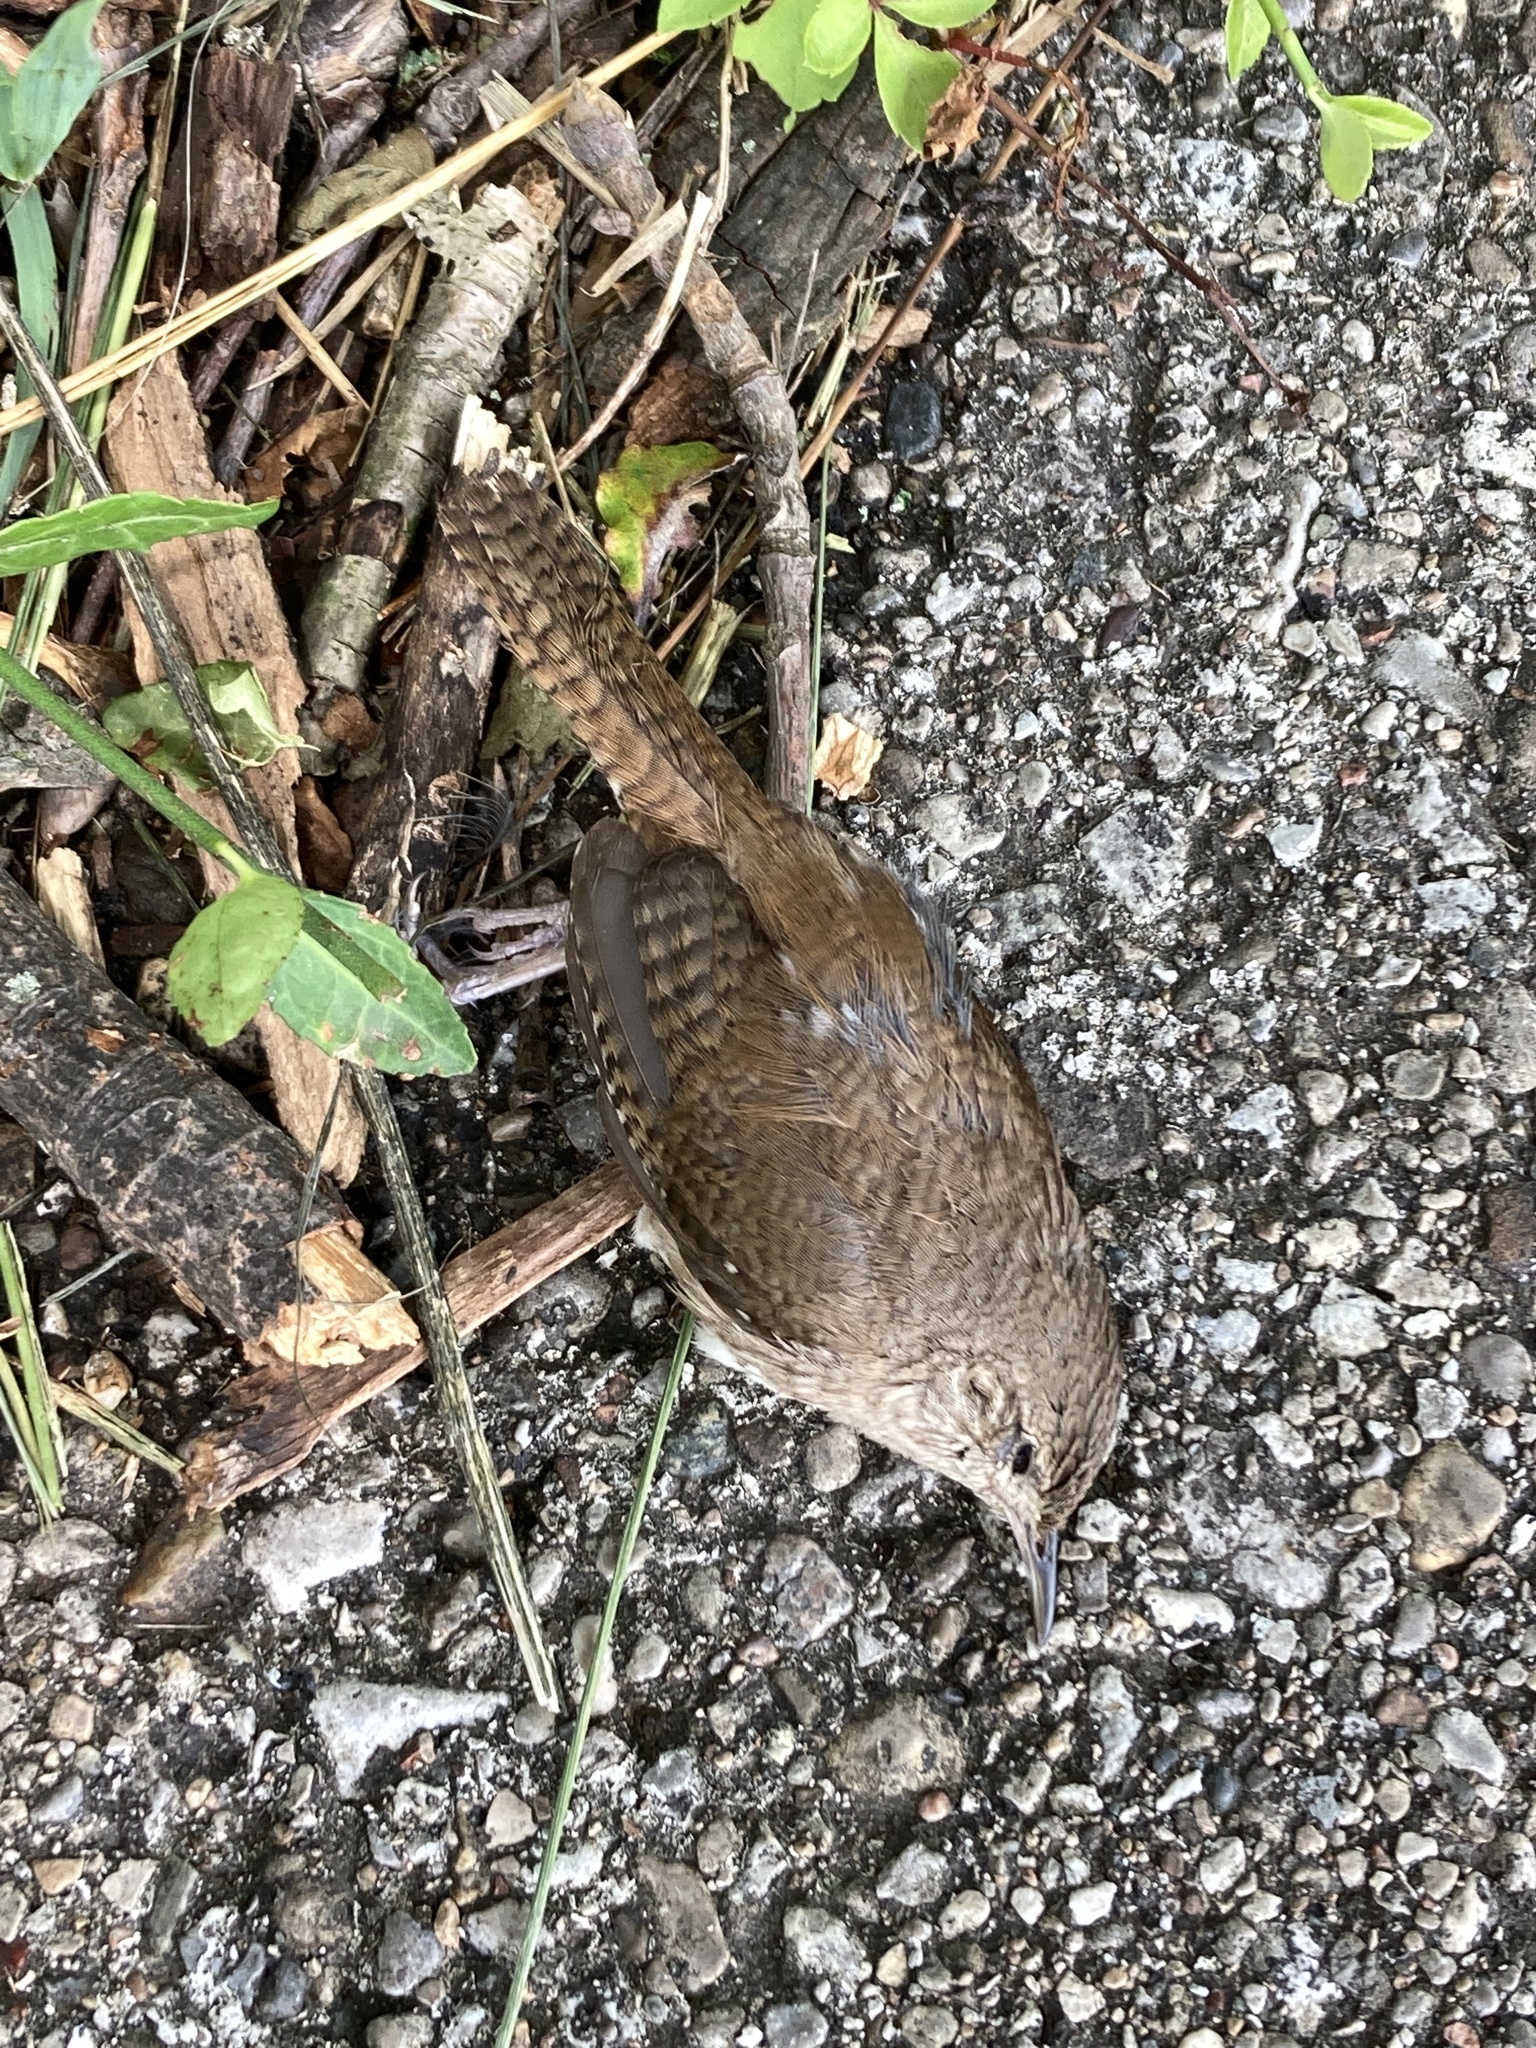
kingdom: Animalia
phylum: Chordata
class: Aves
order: Passeriformes
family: Troglodytidae
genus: Troglodytes
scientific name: Troglodytes aedon
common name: House wren
